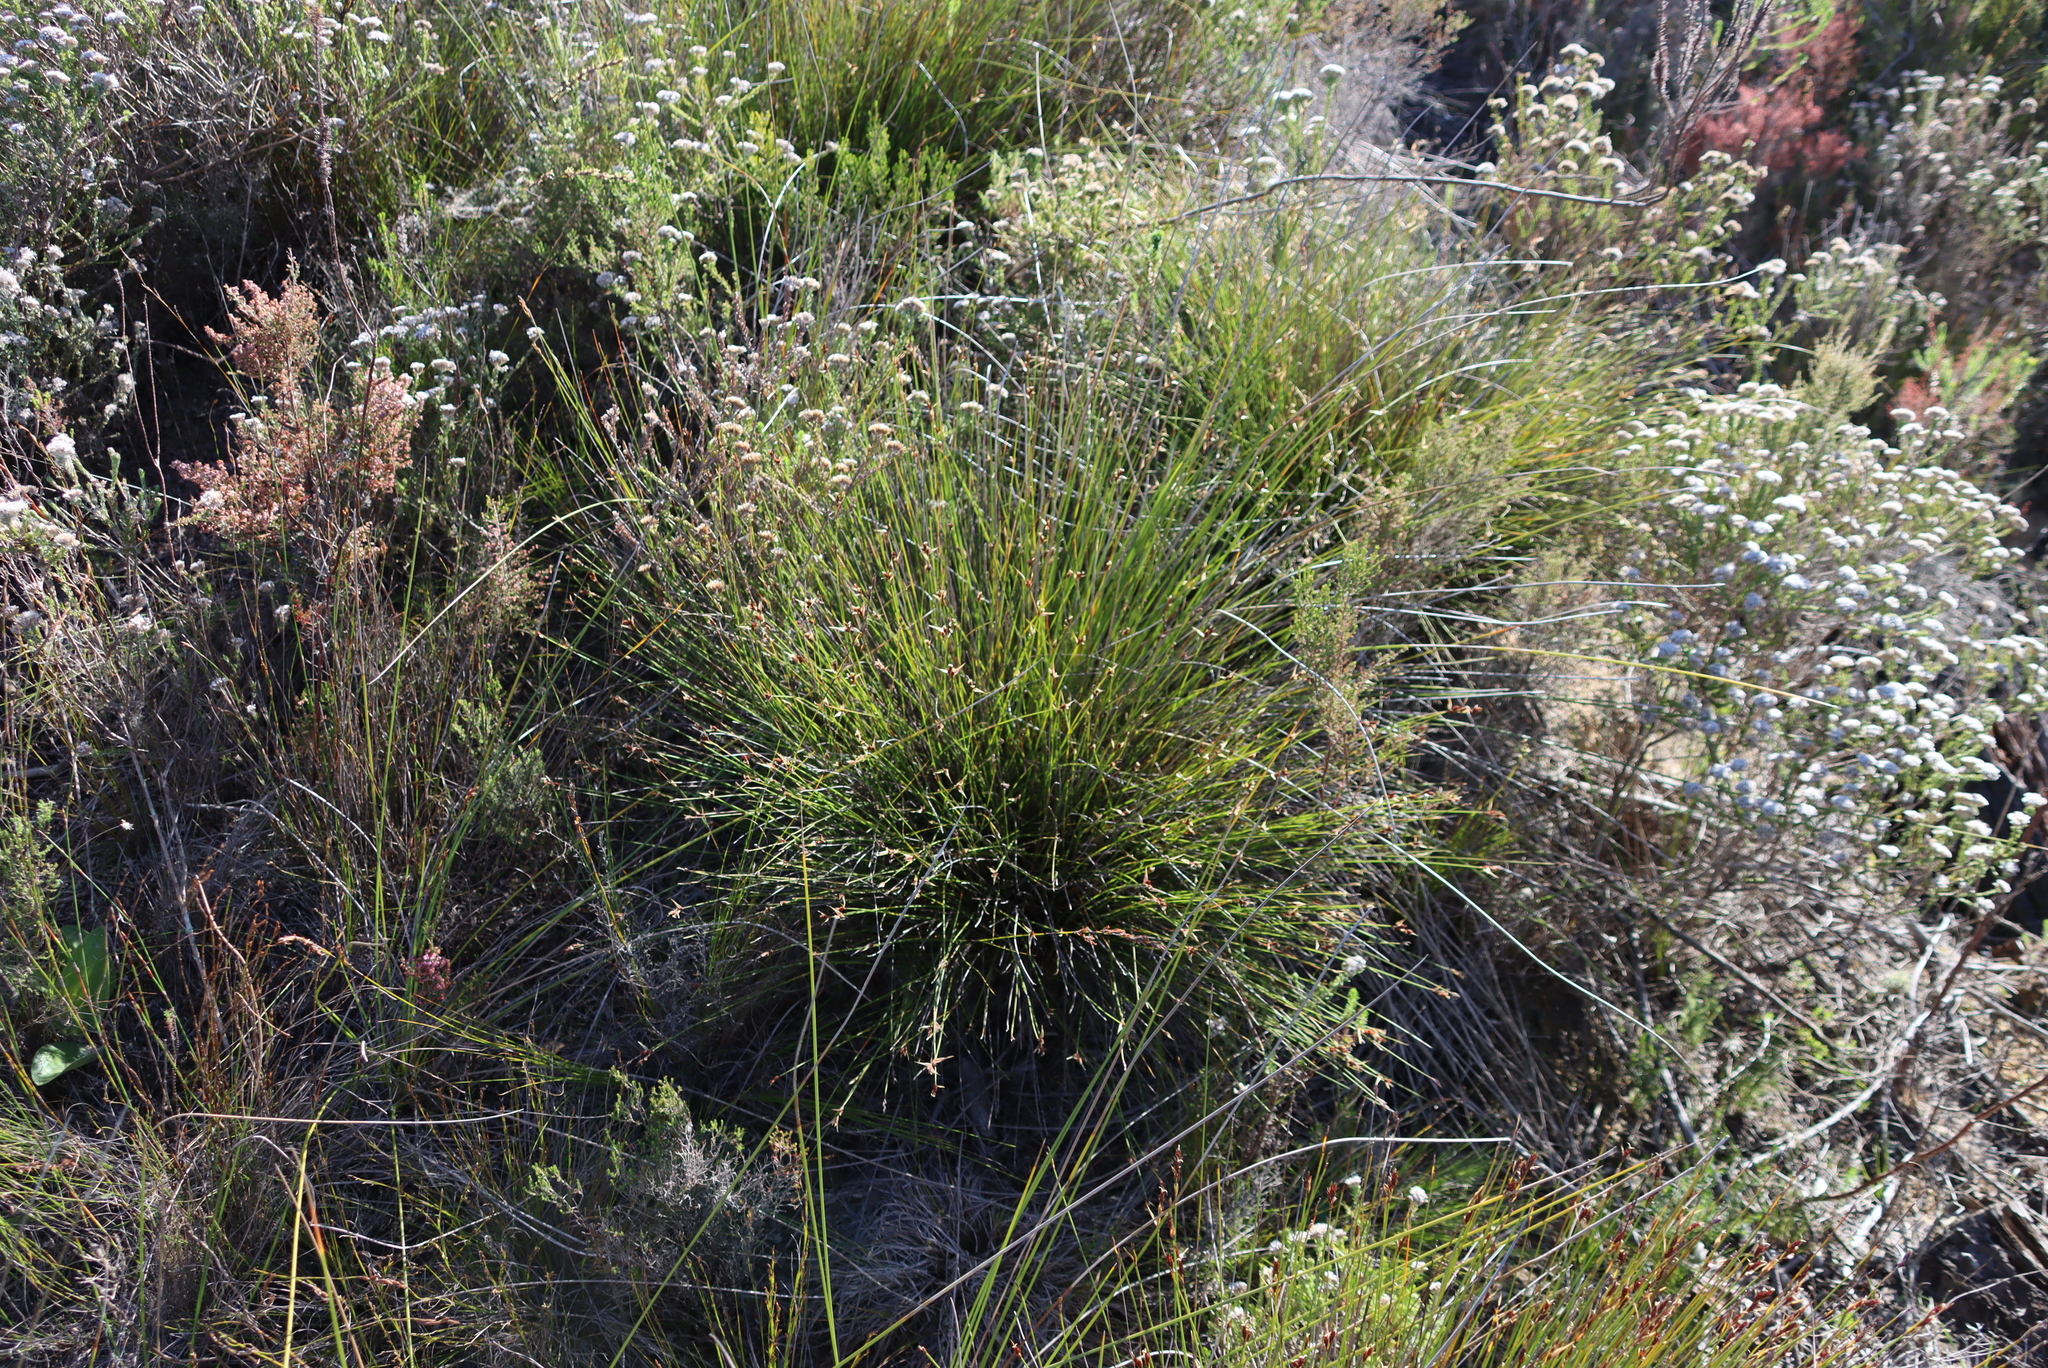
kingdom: Plantae
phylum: Tracheophyta
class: Liliopsida
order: Poales
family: Restionaceae
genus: Hypodiscus
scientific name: Hypodiscus aristatus
